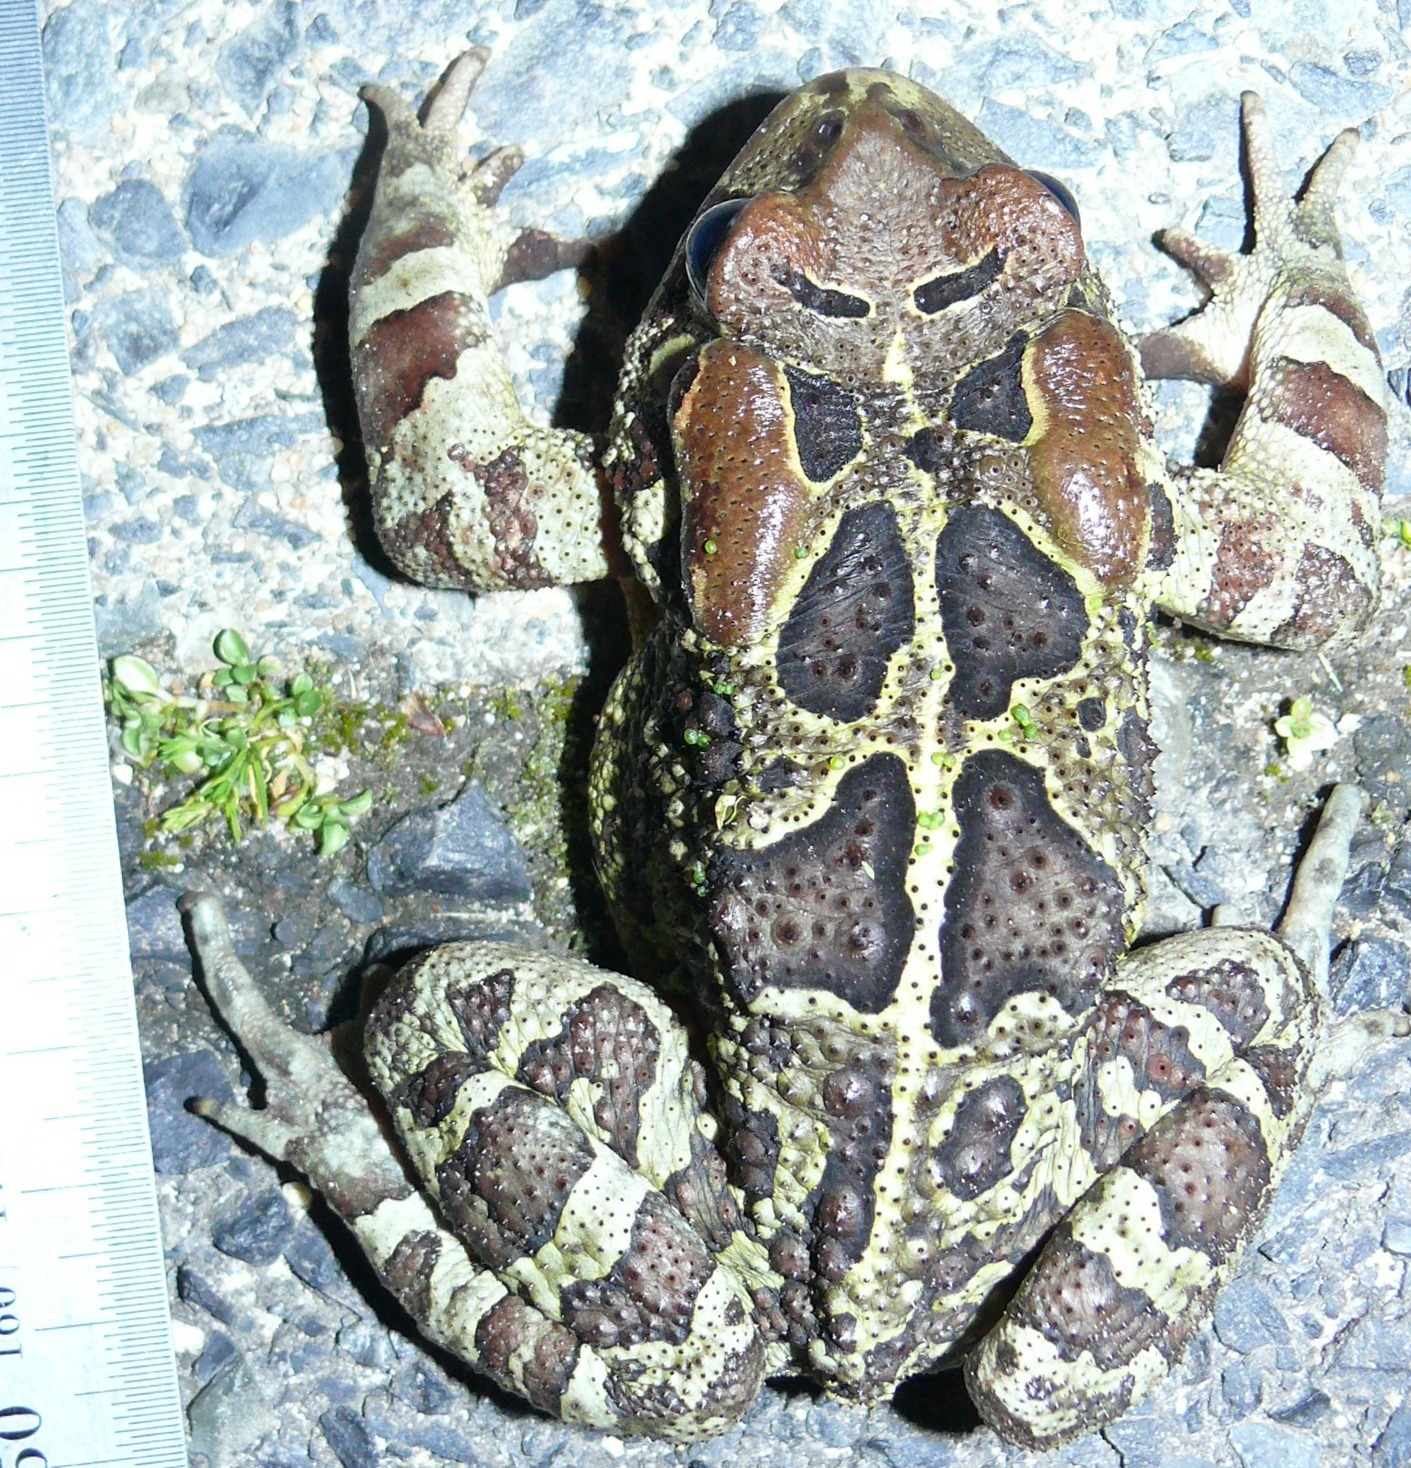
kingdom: Animalia
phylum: Chordata
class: Amphibia
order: Anura
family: Bufonidae
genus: Sclerophrys
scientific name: Sclerophrys pantherina
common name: Panther toad
